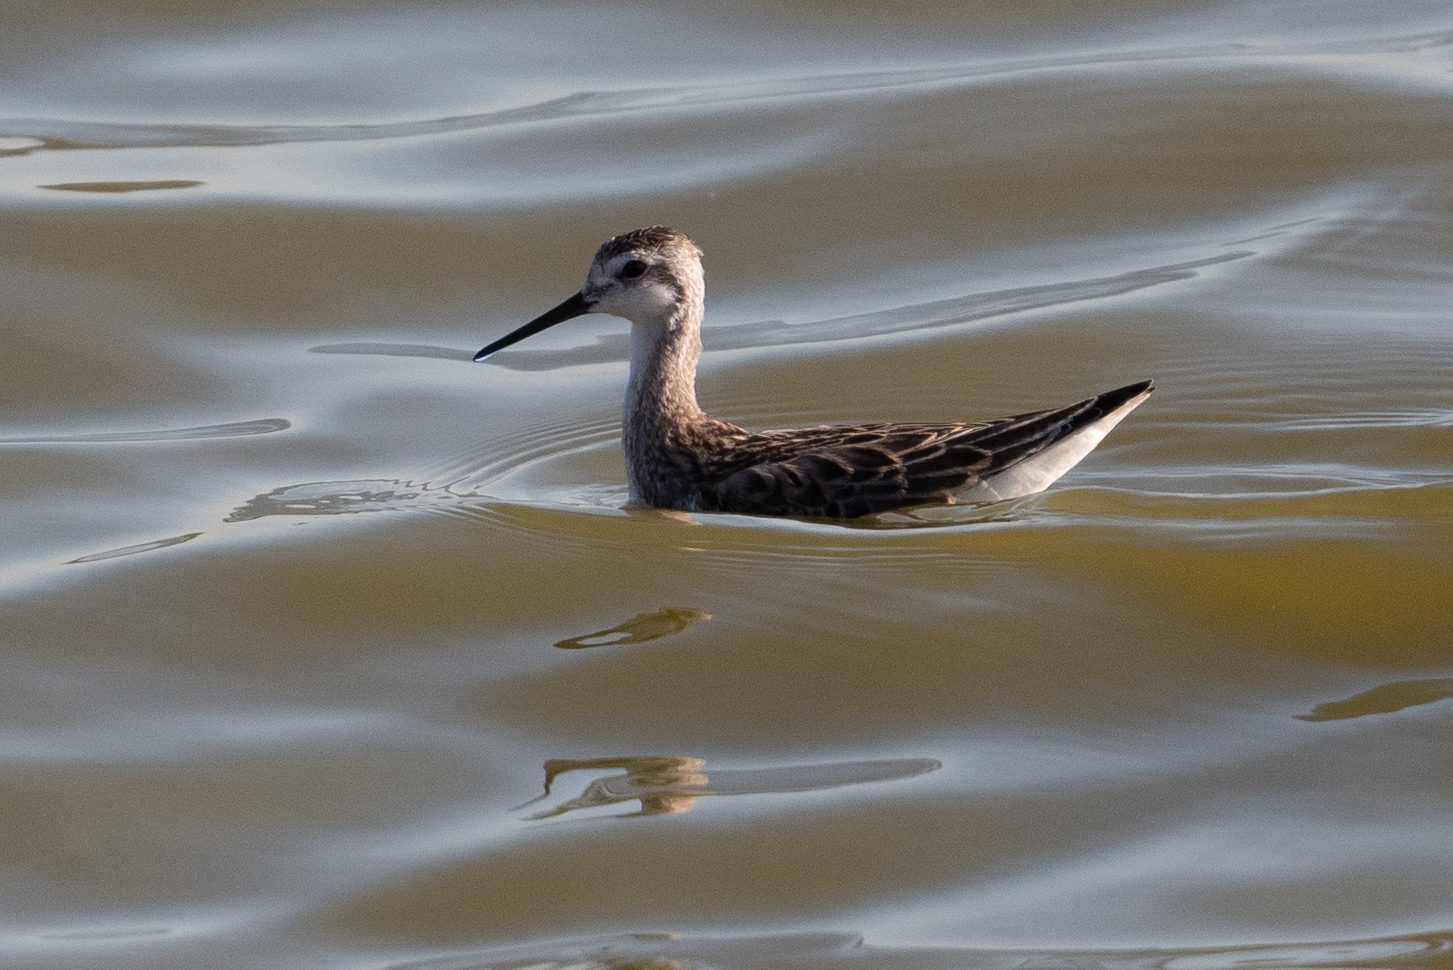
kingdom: Animalia
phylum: Chordata
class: Aves
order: Charadriiformes
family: Scolopacidae
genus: Phalaropus
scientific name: Phalaropus tricolor
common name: Wilson's phalarope
